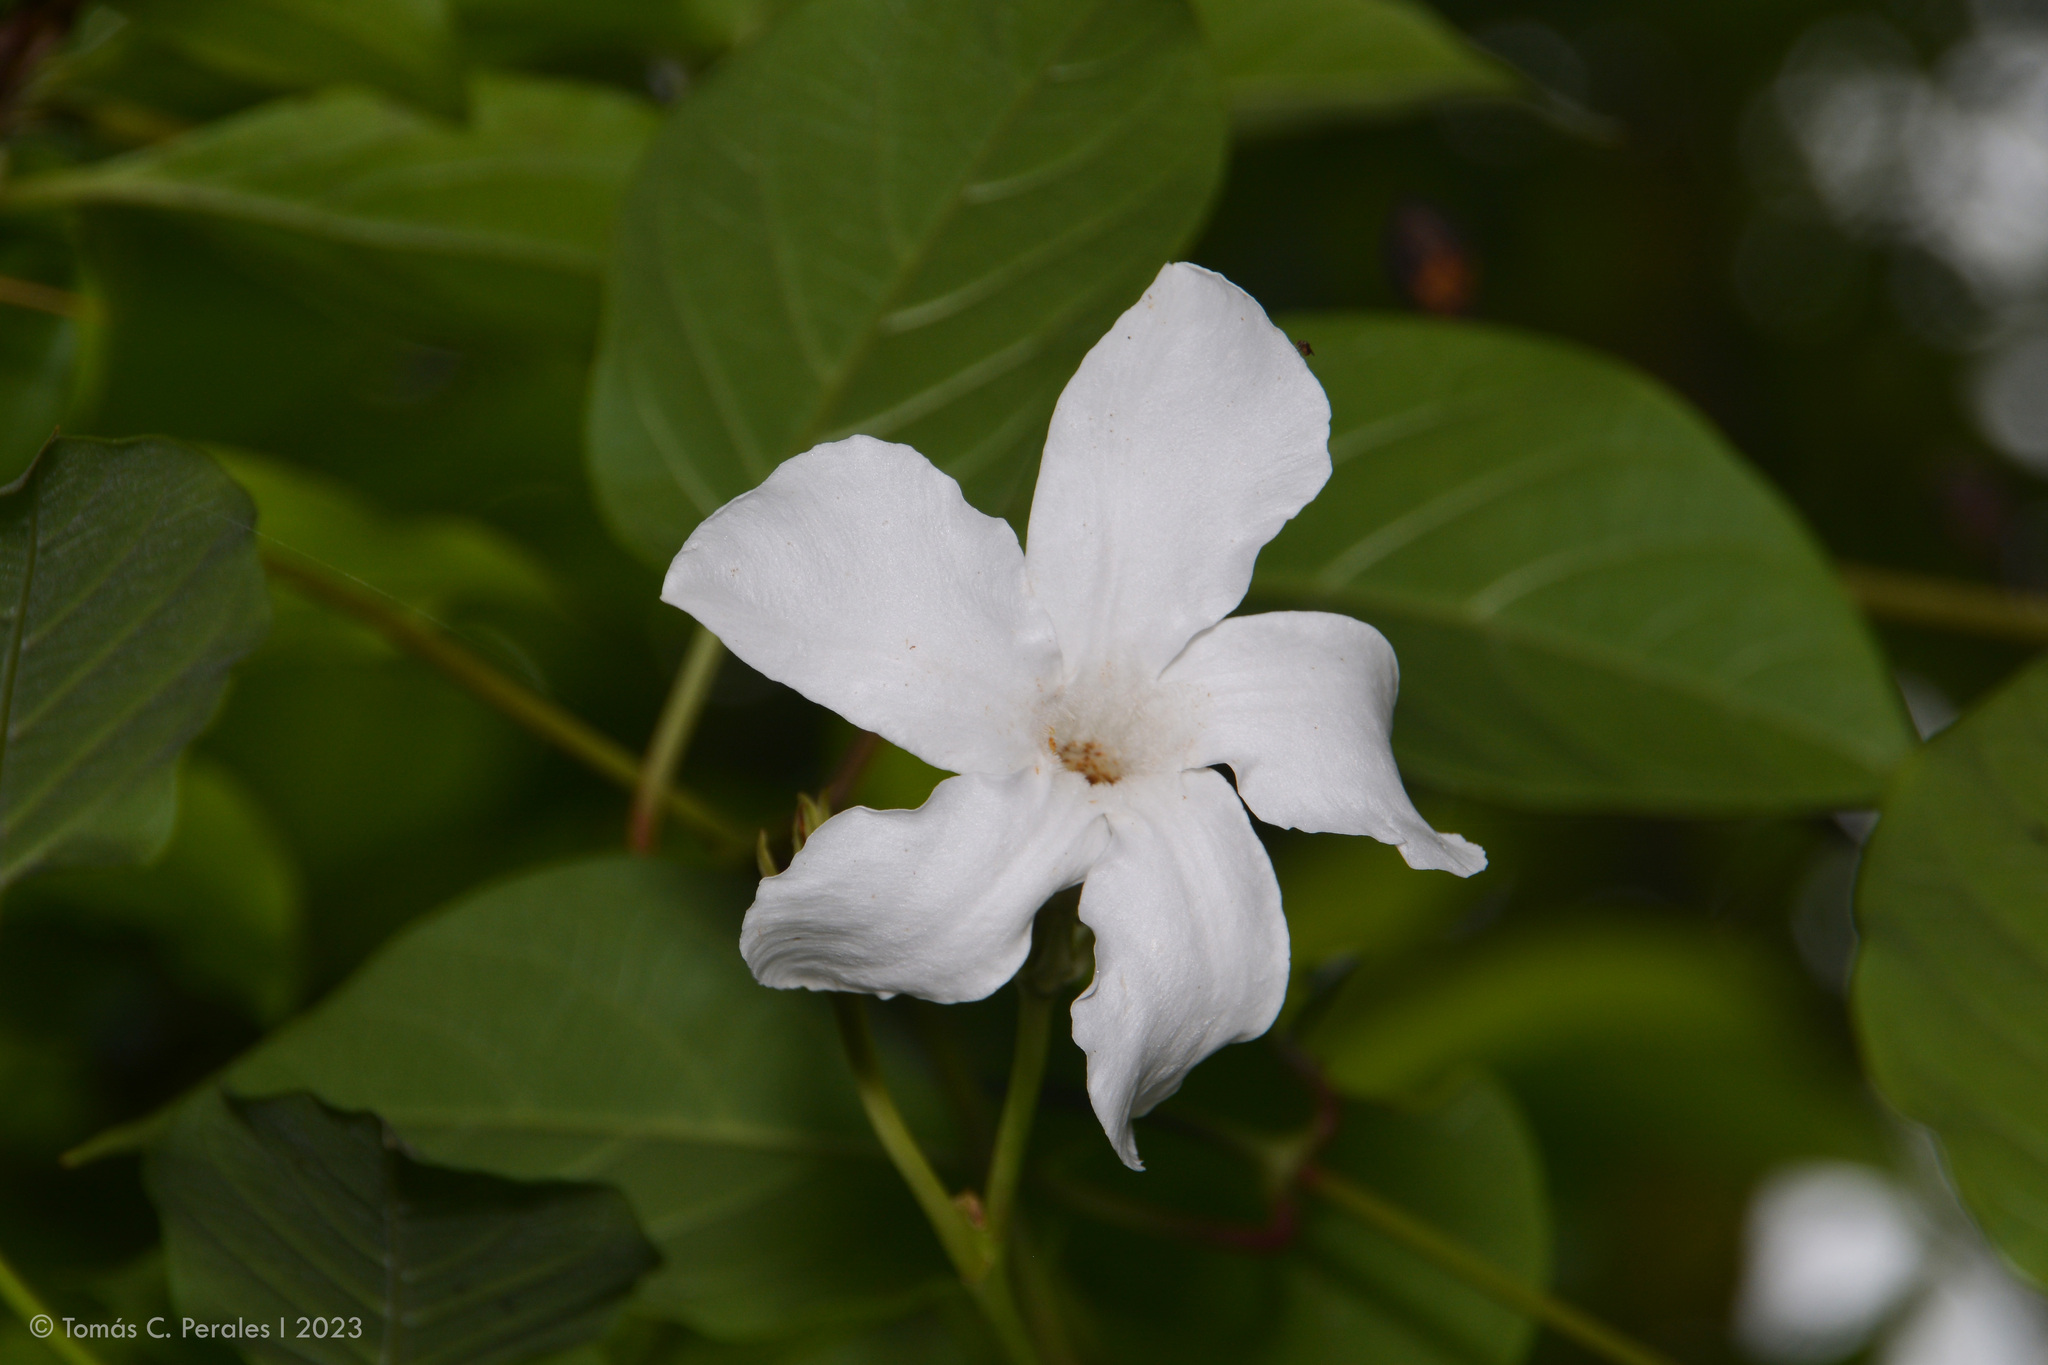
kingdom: Plantae
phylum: Tracheophyta
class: Magnoliopsida
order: Gentianales
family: Apocynaceae
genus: Mandevilla
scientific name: Mandevilla laxa
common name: Chilean-jasmine
